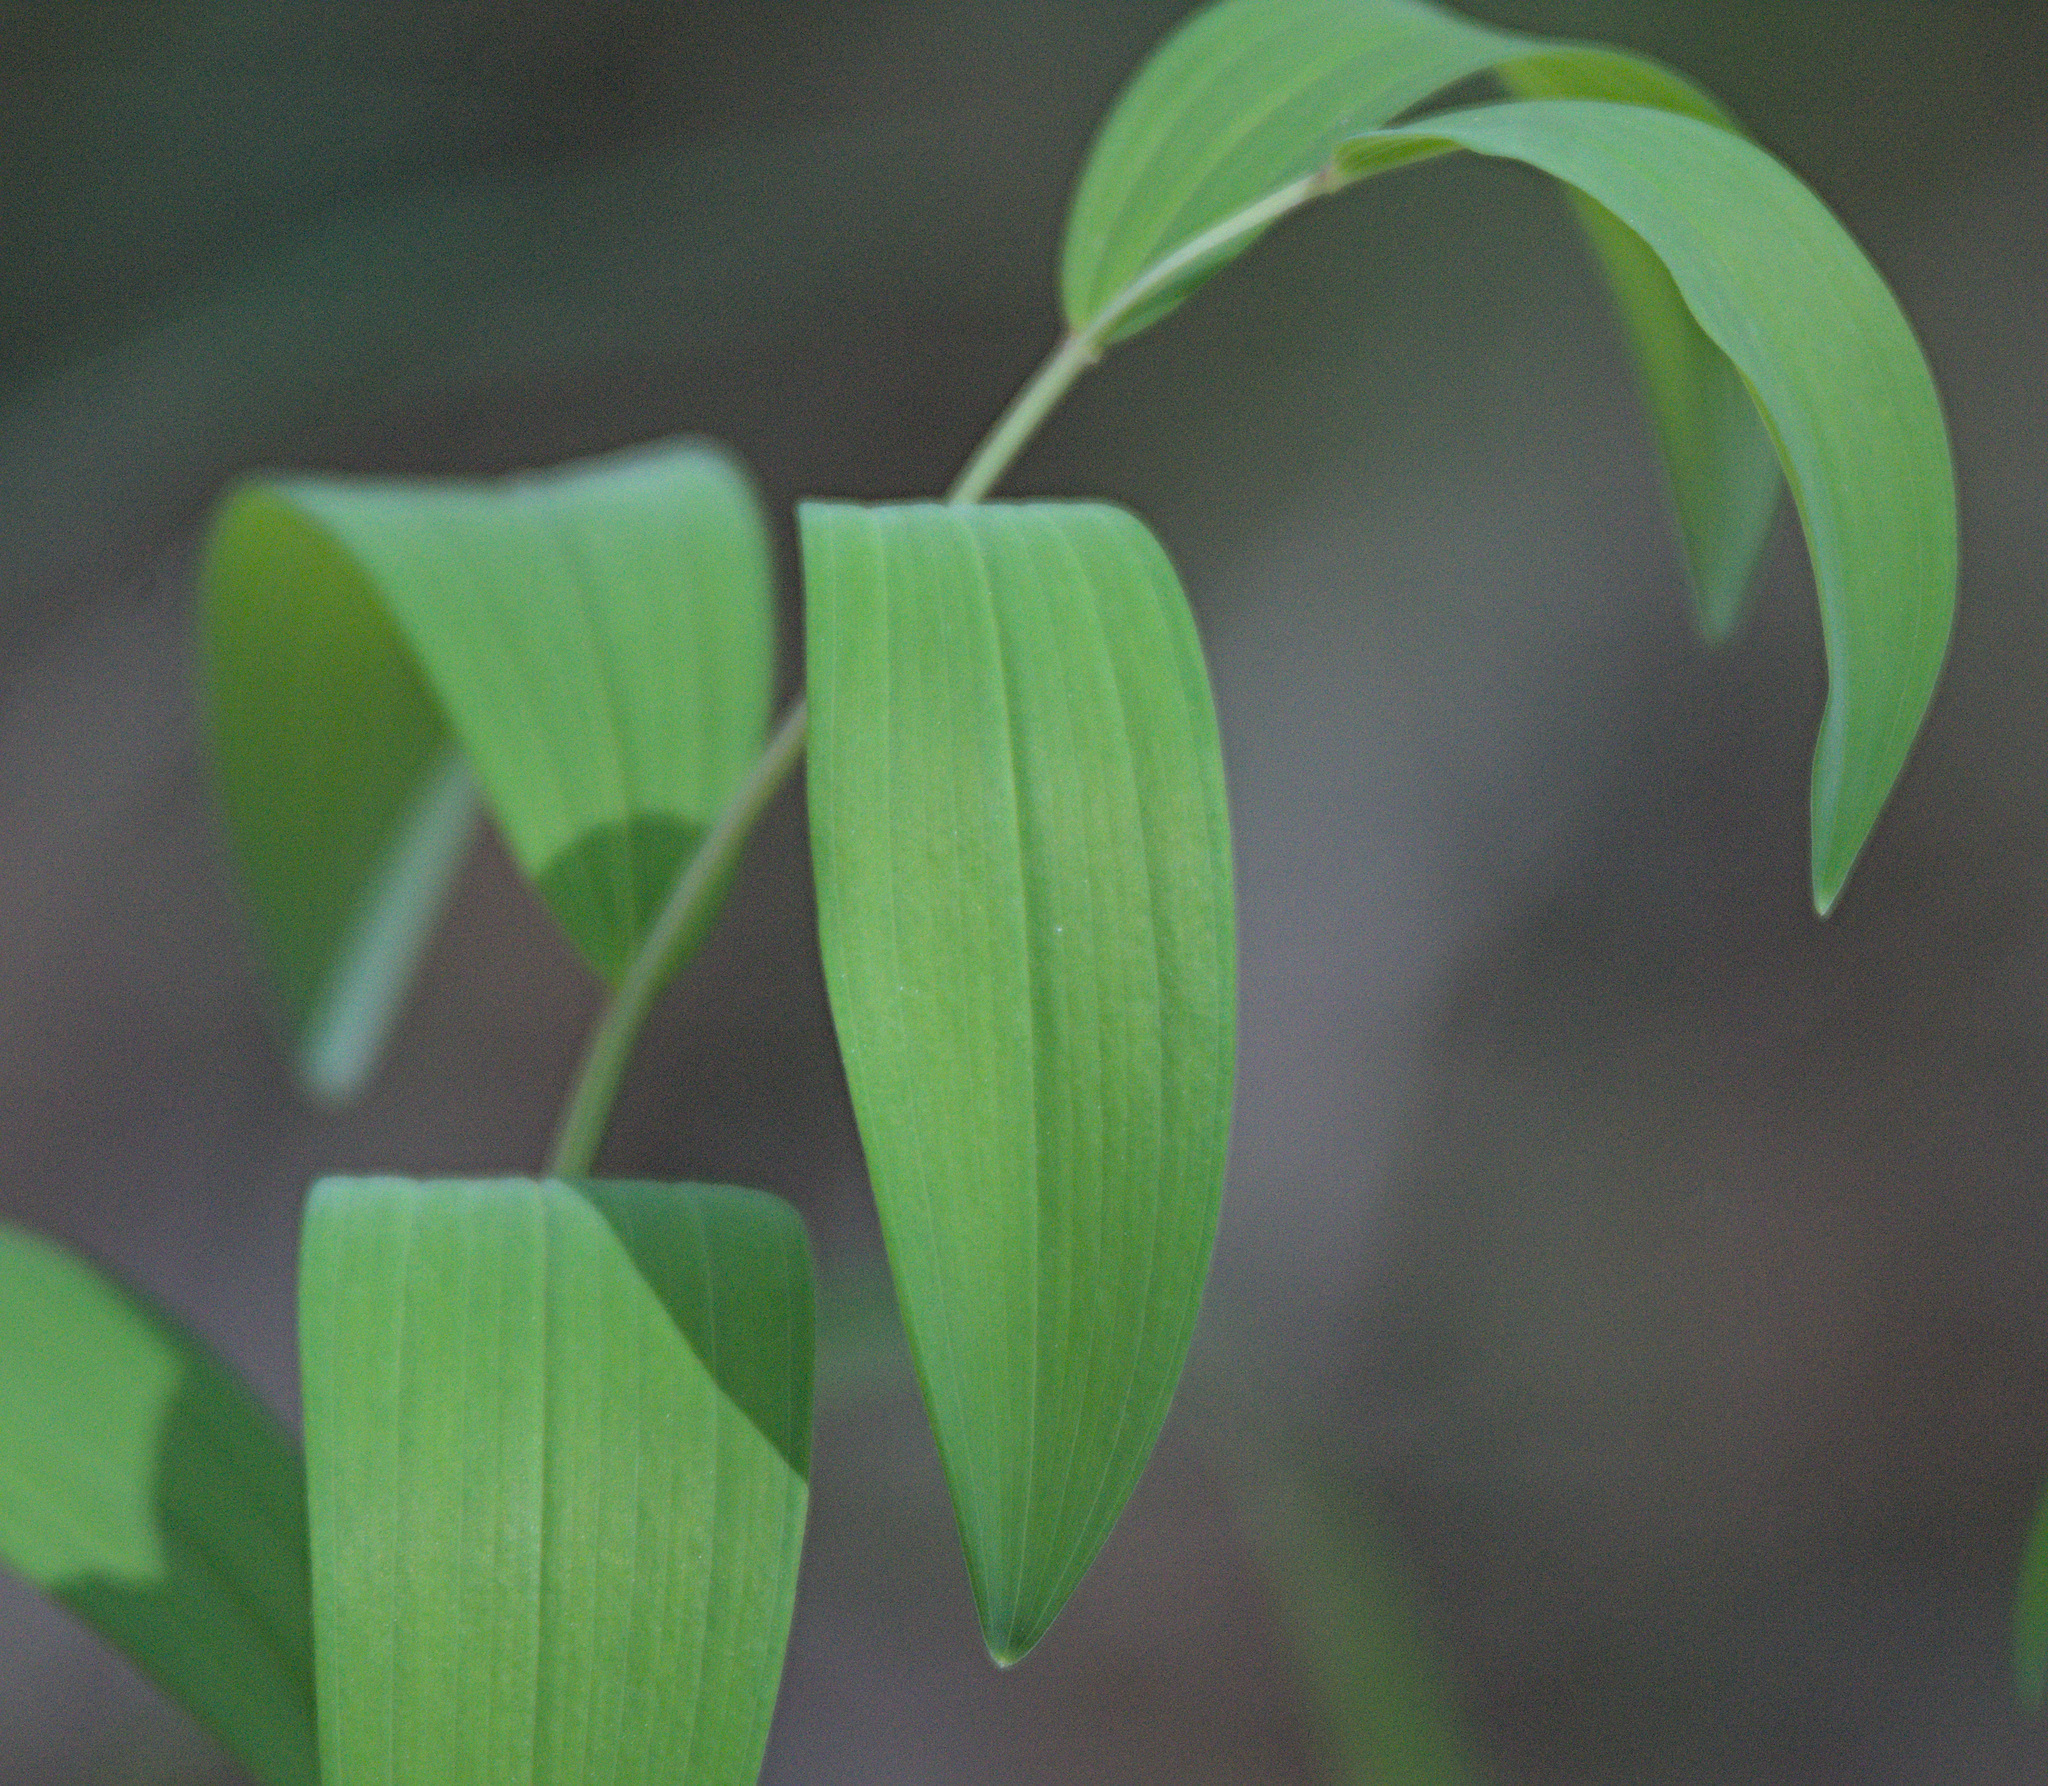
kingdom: Plantae
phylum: Tracheophyta
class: Liliopsida
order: Asparagales
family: Asparagaceae
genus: Polygonatum
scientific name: Polygonatum odoratum
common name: Angular solomon's-seal
